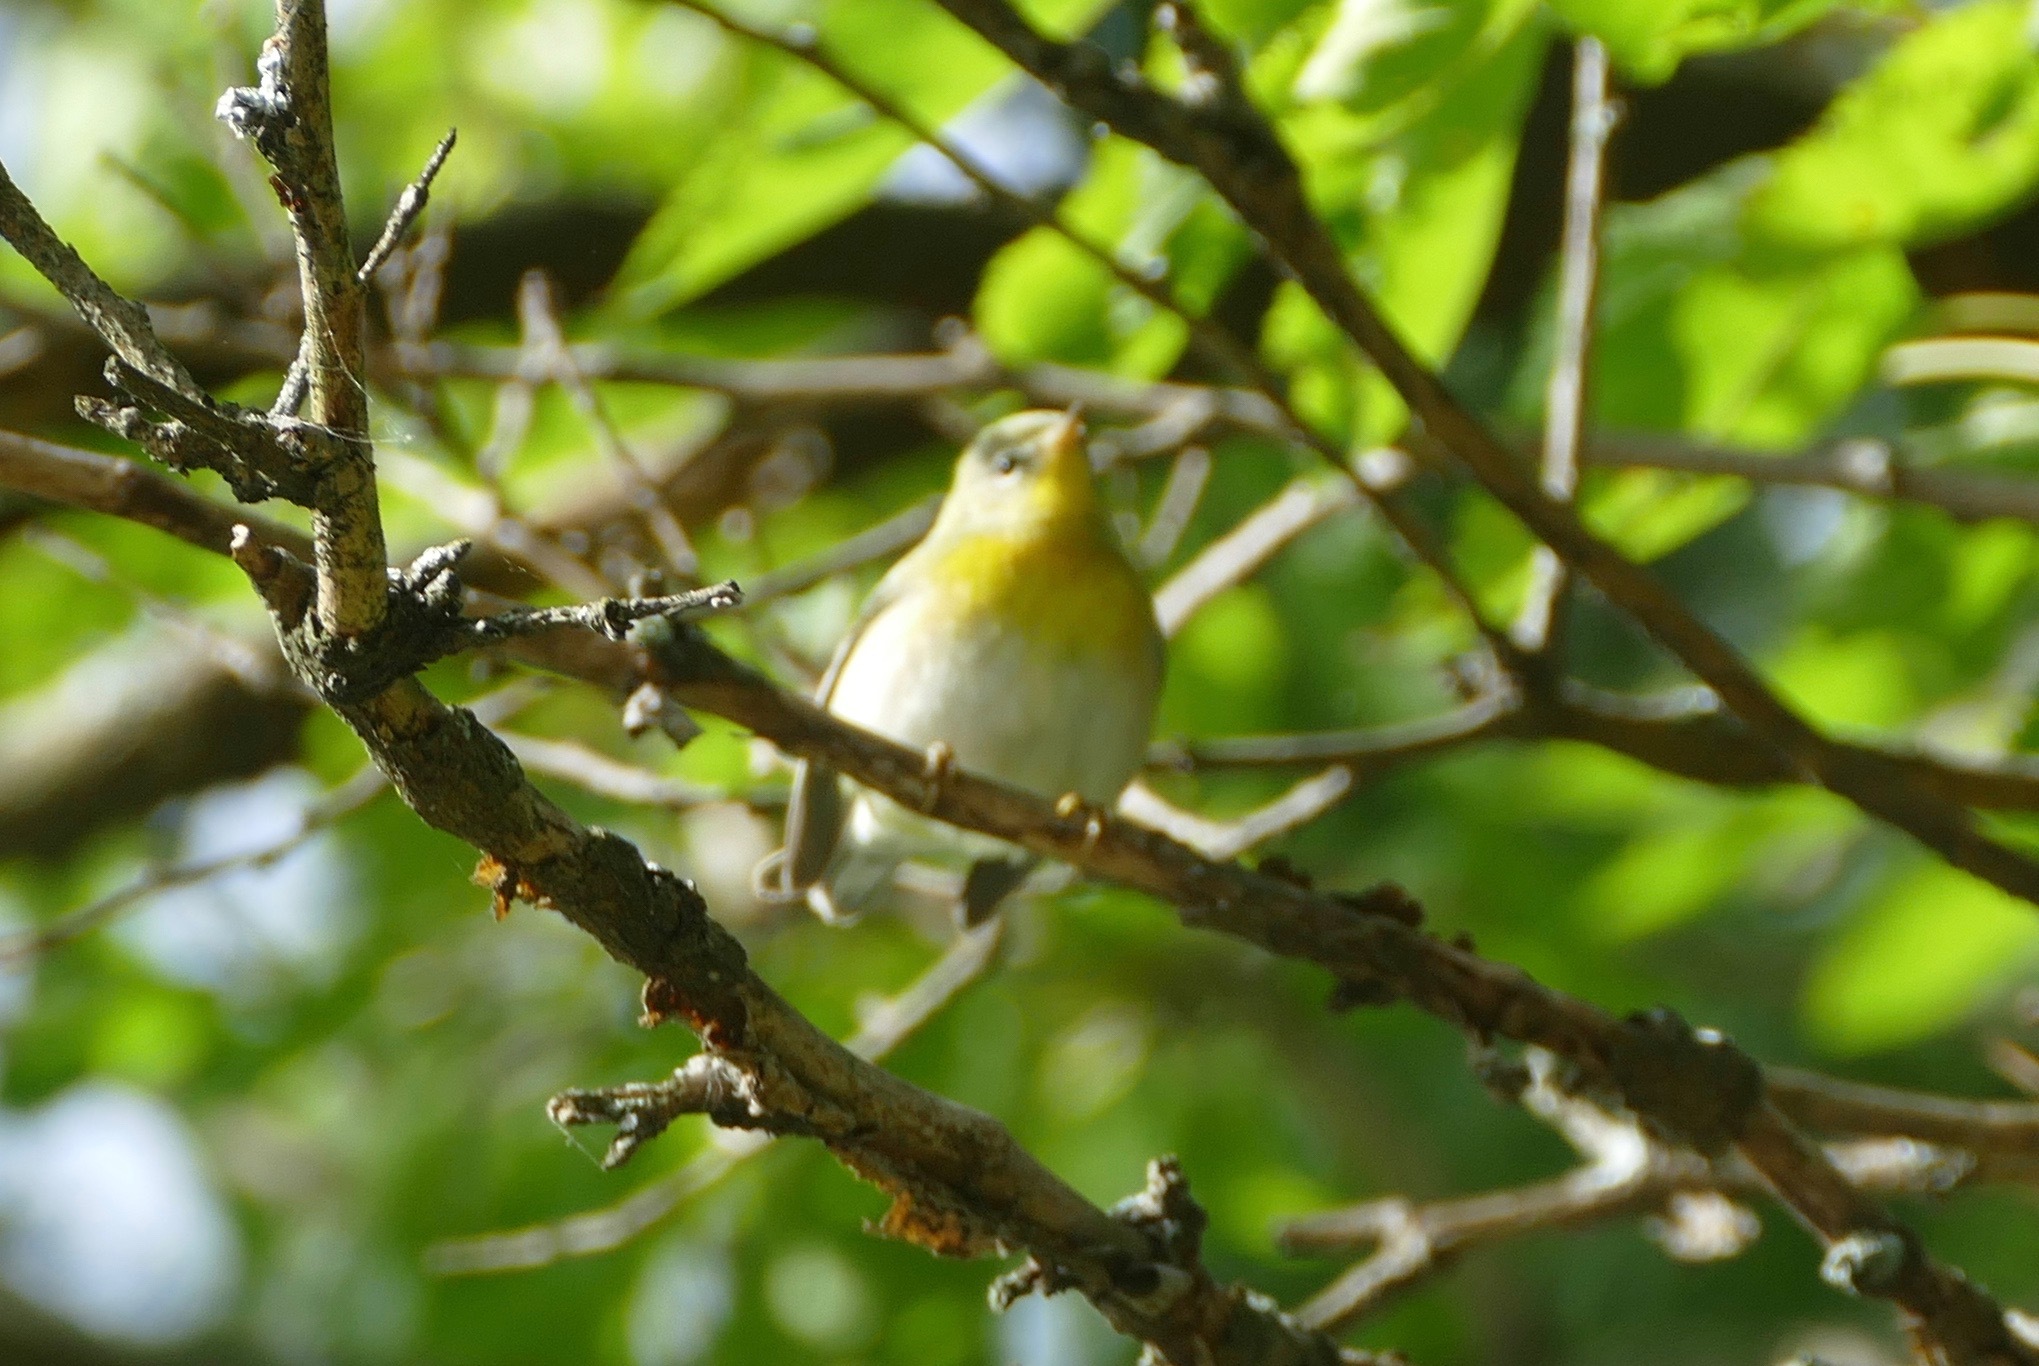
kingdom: Animalia
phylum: Chordata
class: Aves
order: Passeriformes
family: Parulidae
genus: Setophaga
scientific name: Setophaga americana
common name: Northern parula
